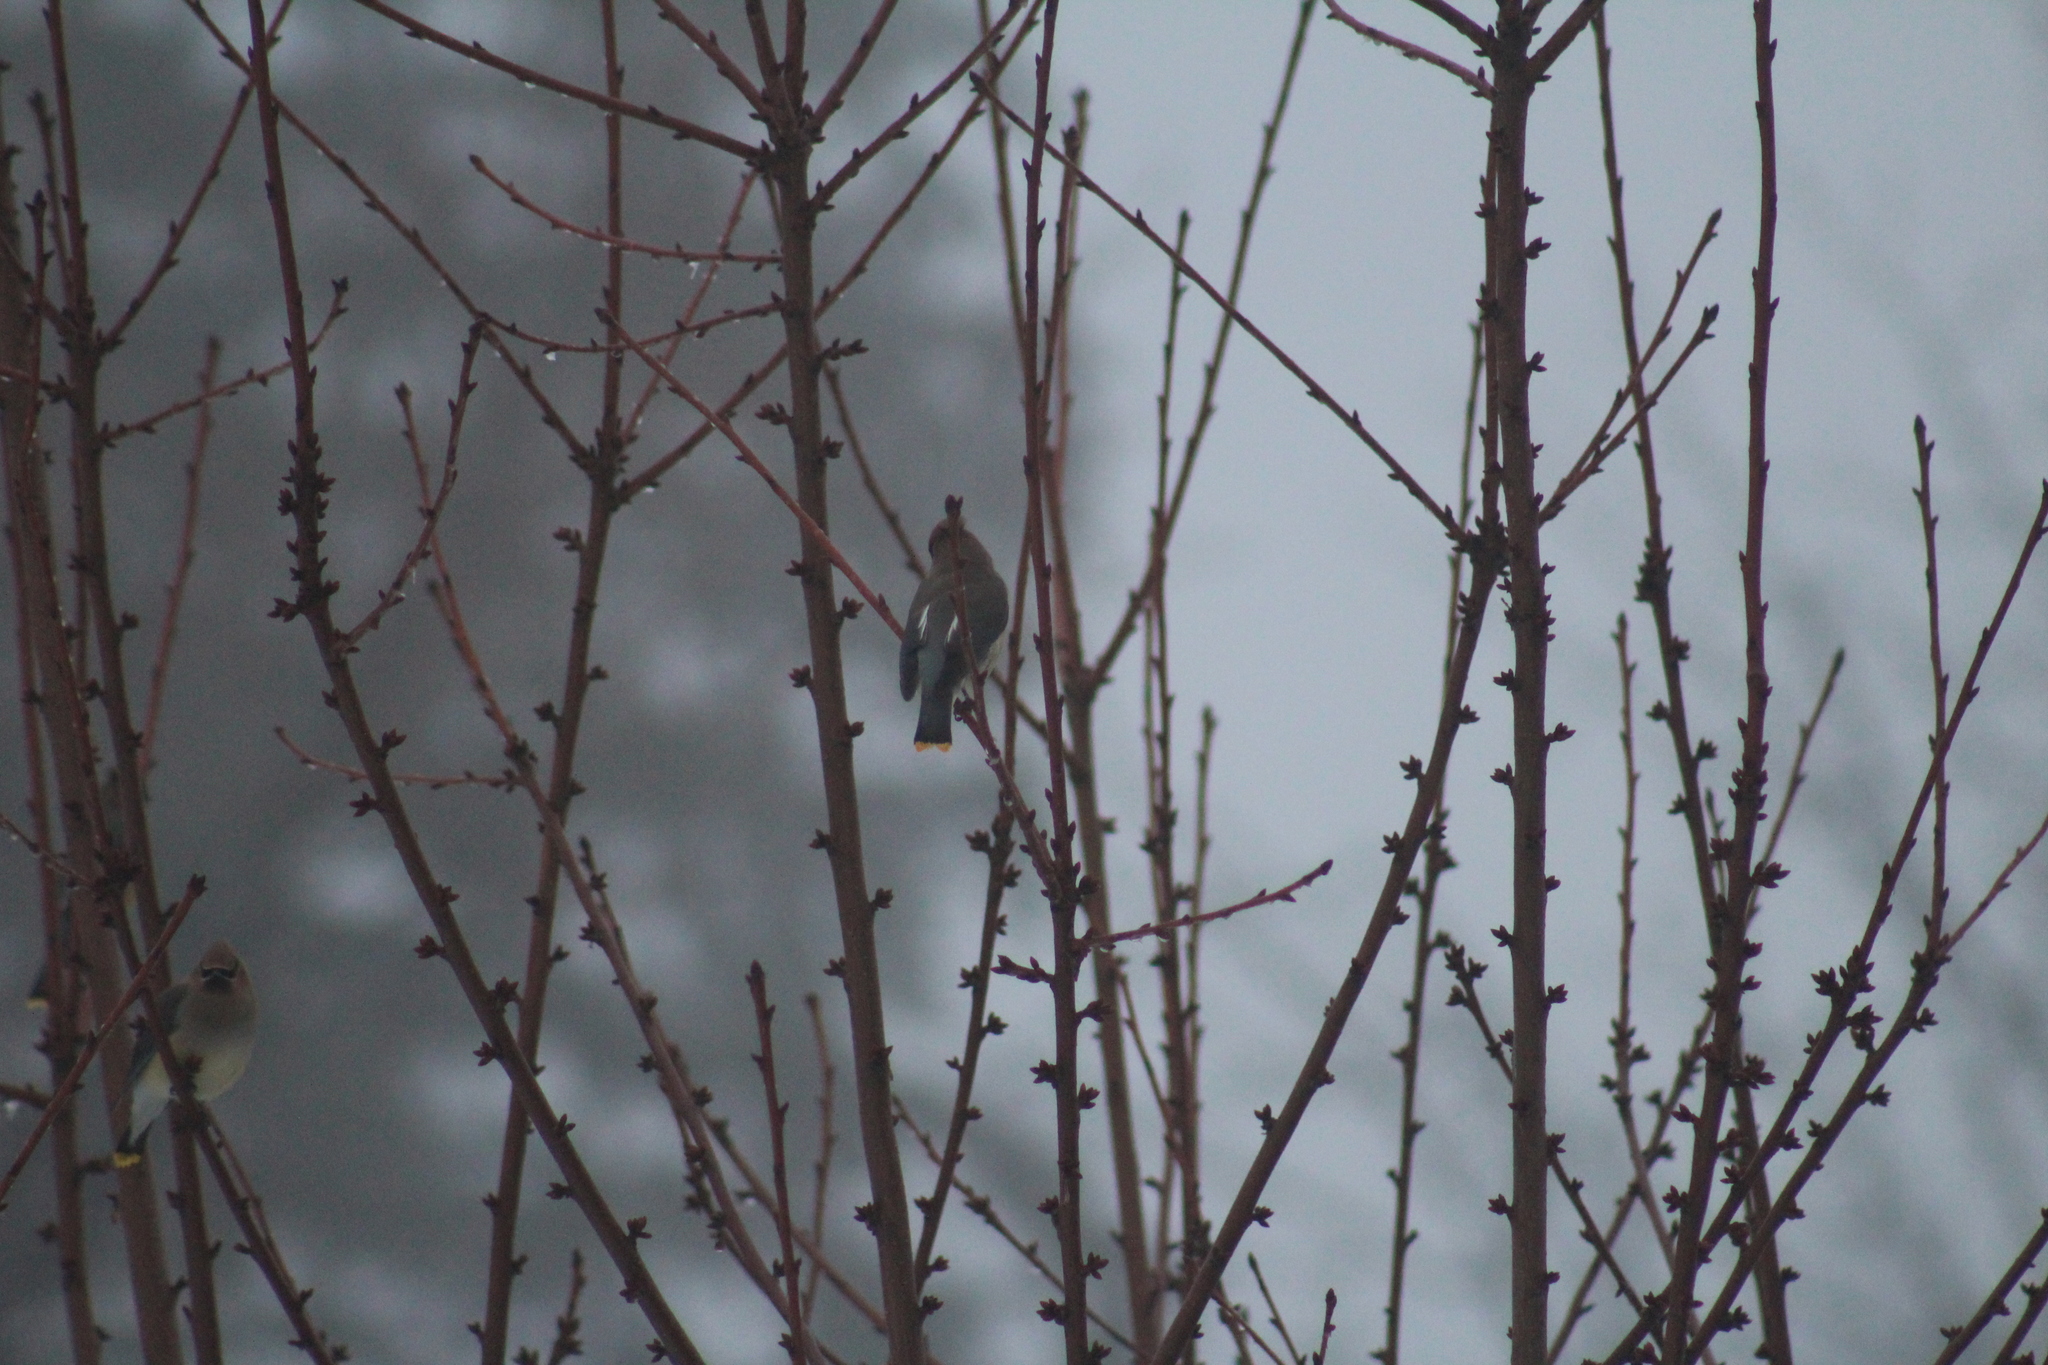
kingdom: Animalia
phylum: Chordata
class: Aves
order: Passeriformes
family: Bombycillidae
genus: Bombycilla
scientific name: Bombycilla cedrorum
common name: Cedar waxwing
